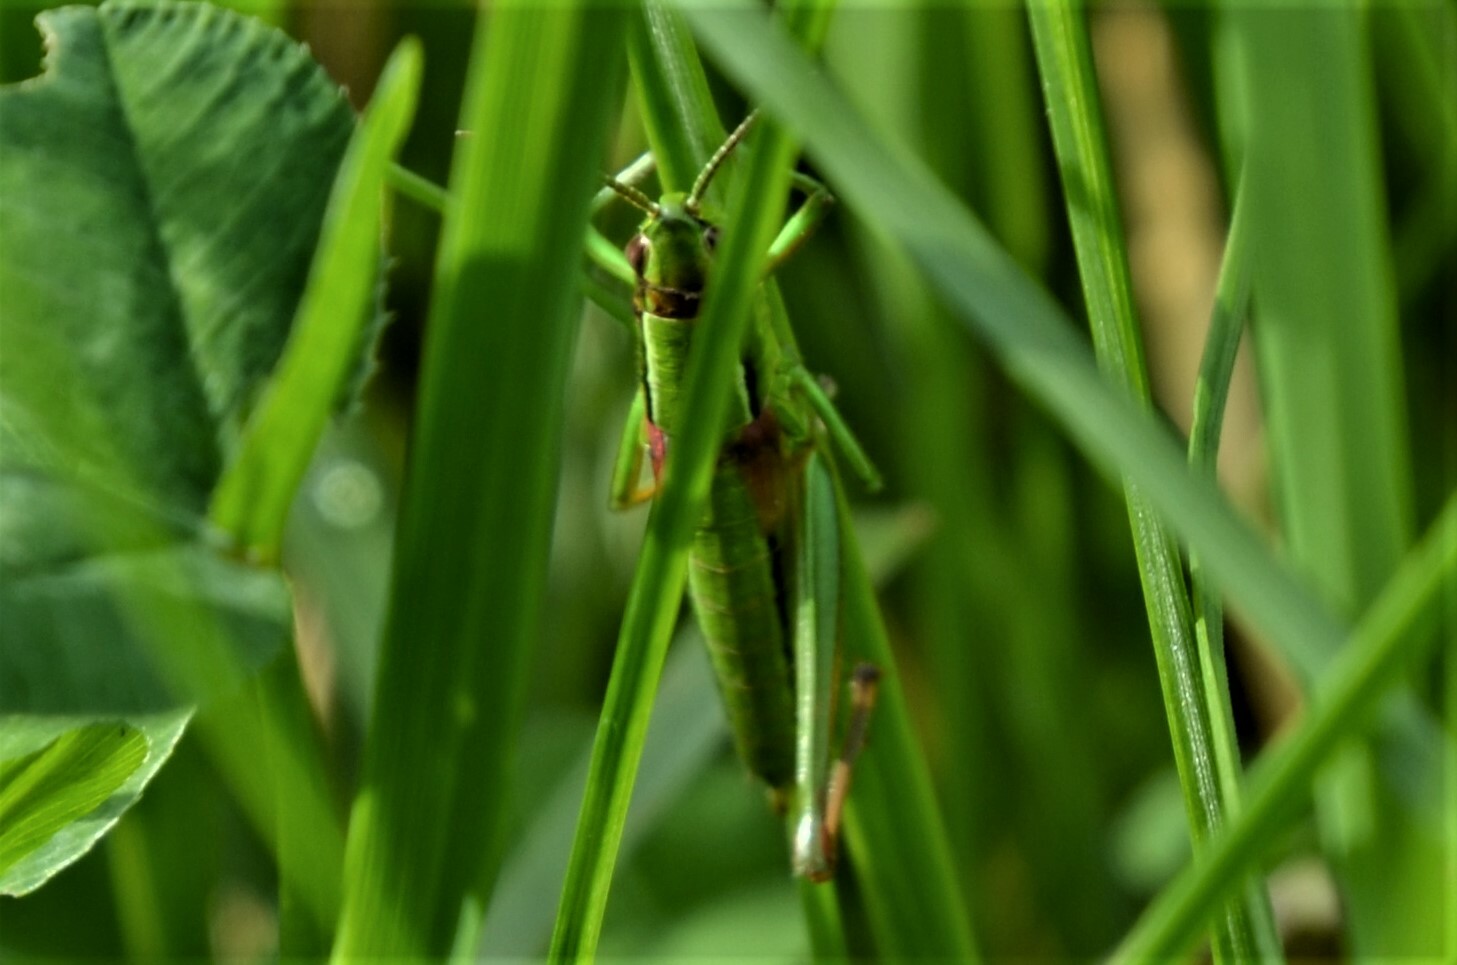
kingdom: Animalia
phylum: Arthropoda
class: Insecta
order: Orthoptera
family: Acrididae
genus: Euthystira
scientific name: Euthystira brachyptera
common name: Small gold grasshopper
